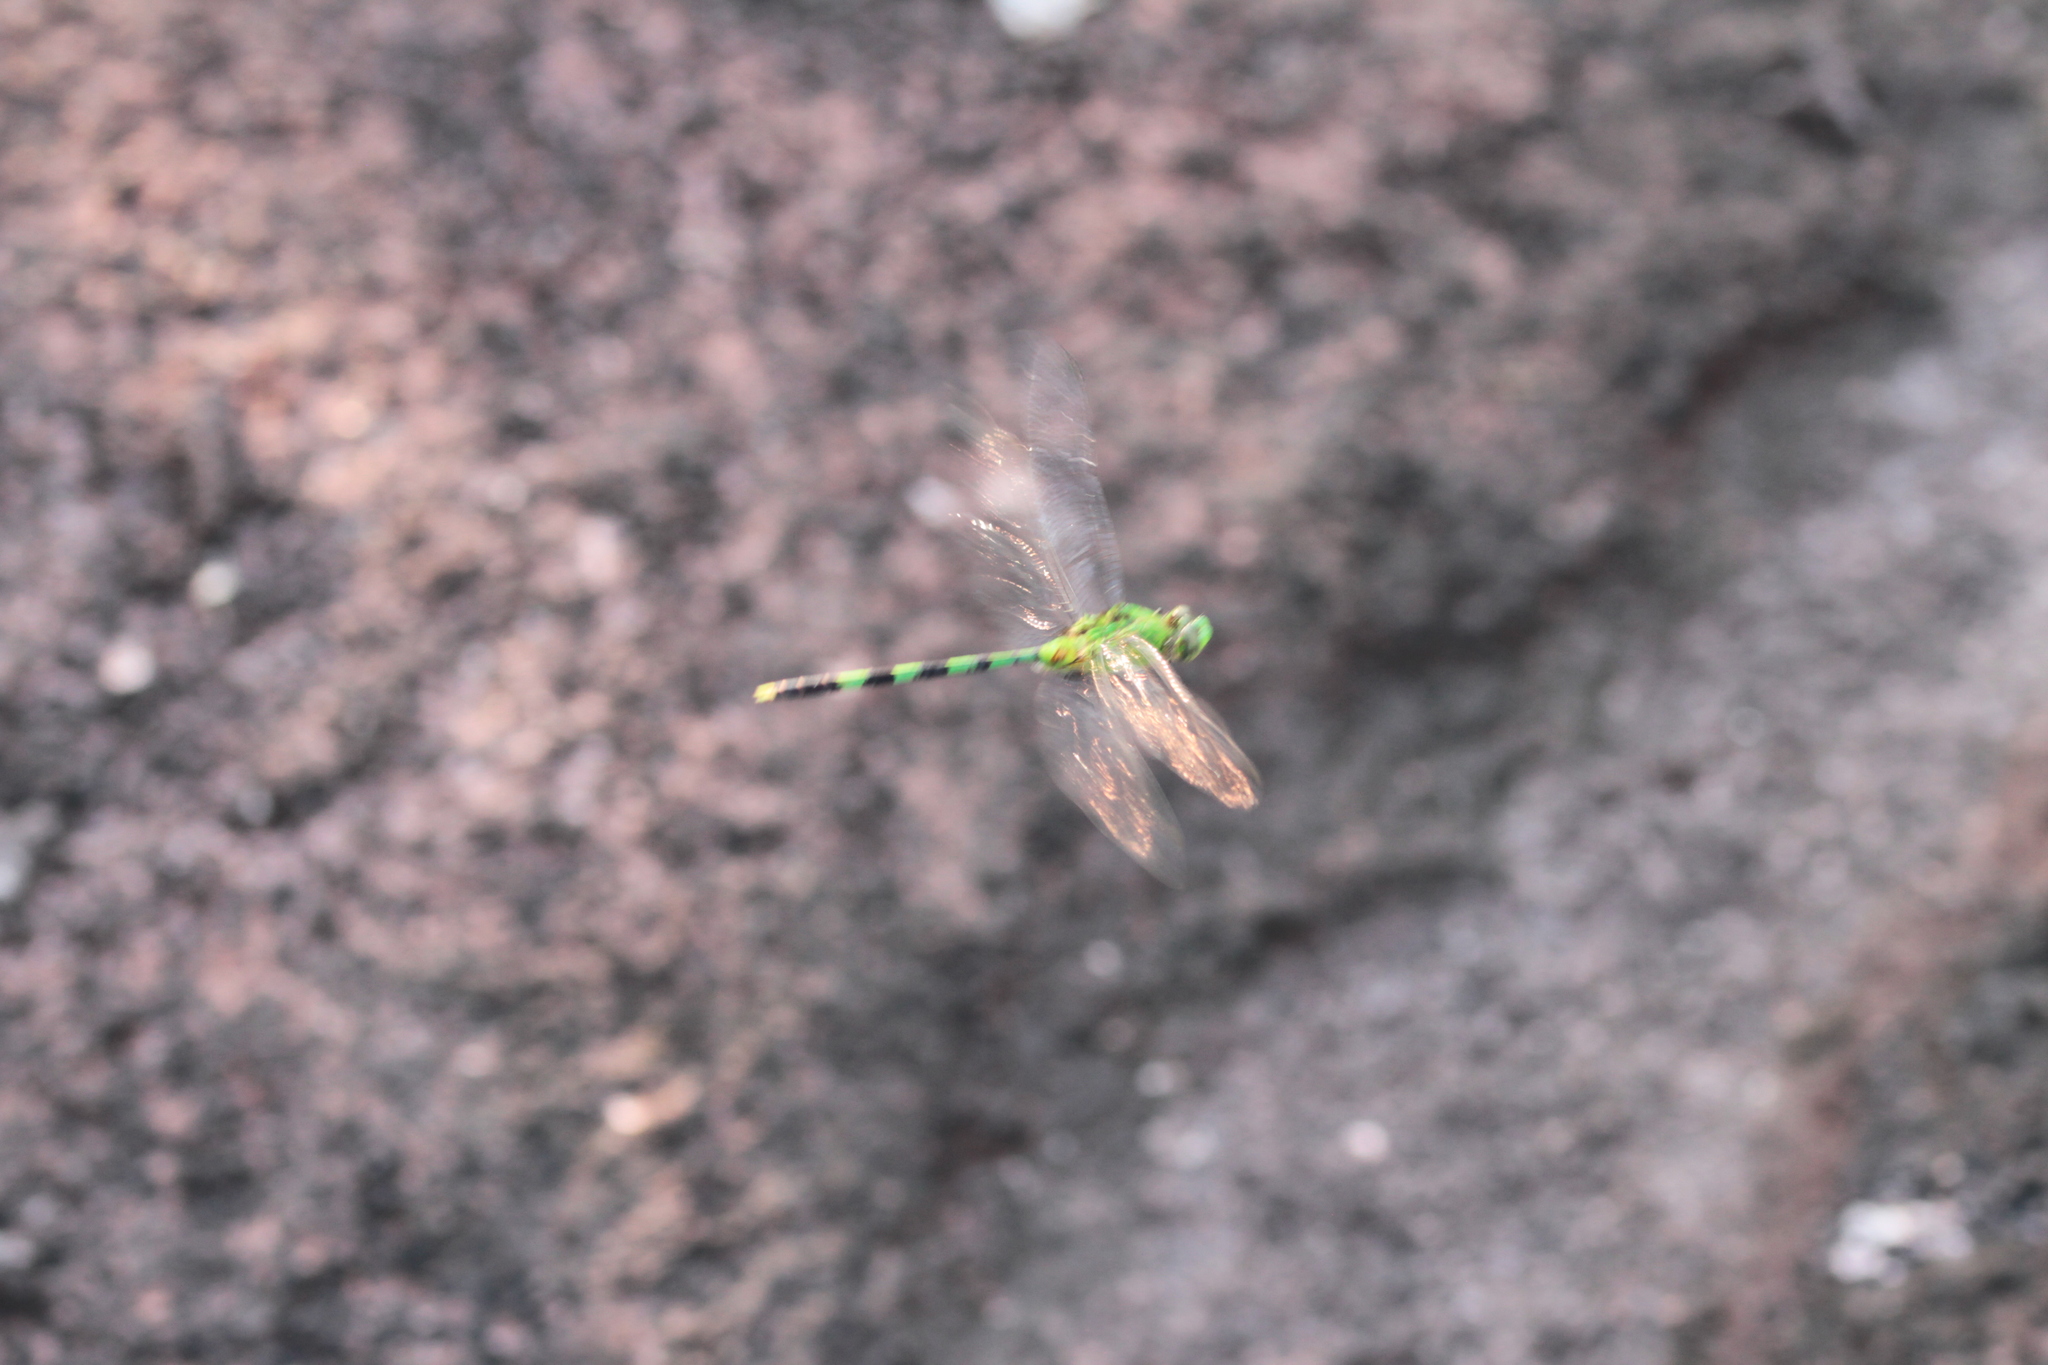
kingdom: Animalia
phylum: Arthropoda
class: Insecta
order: Odonata
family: Libellulidae
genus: Erythemis
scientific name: Erythemis vesiculosa
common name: Great pondhawk
